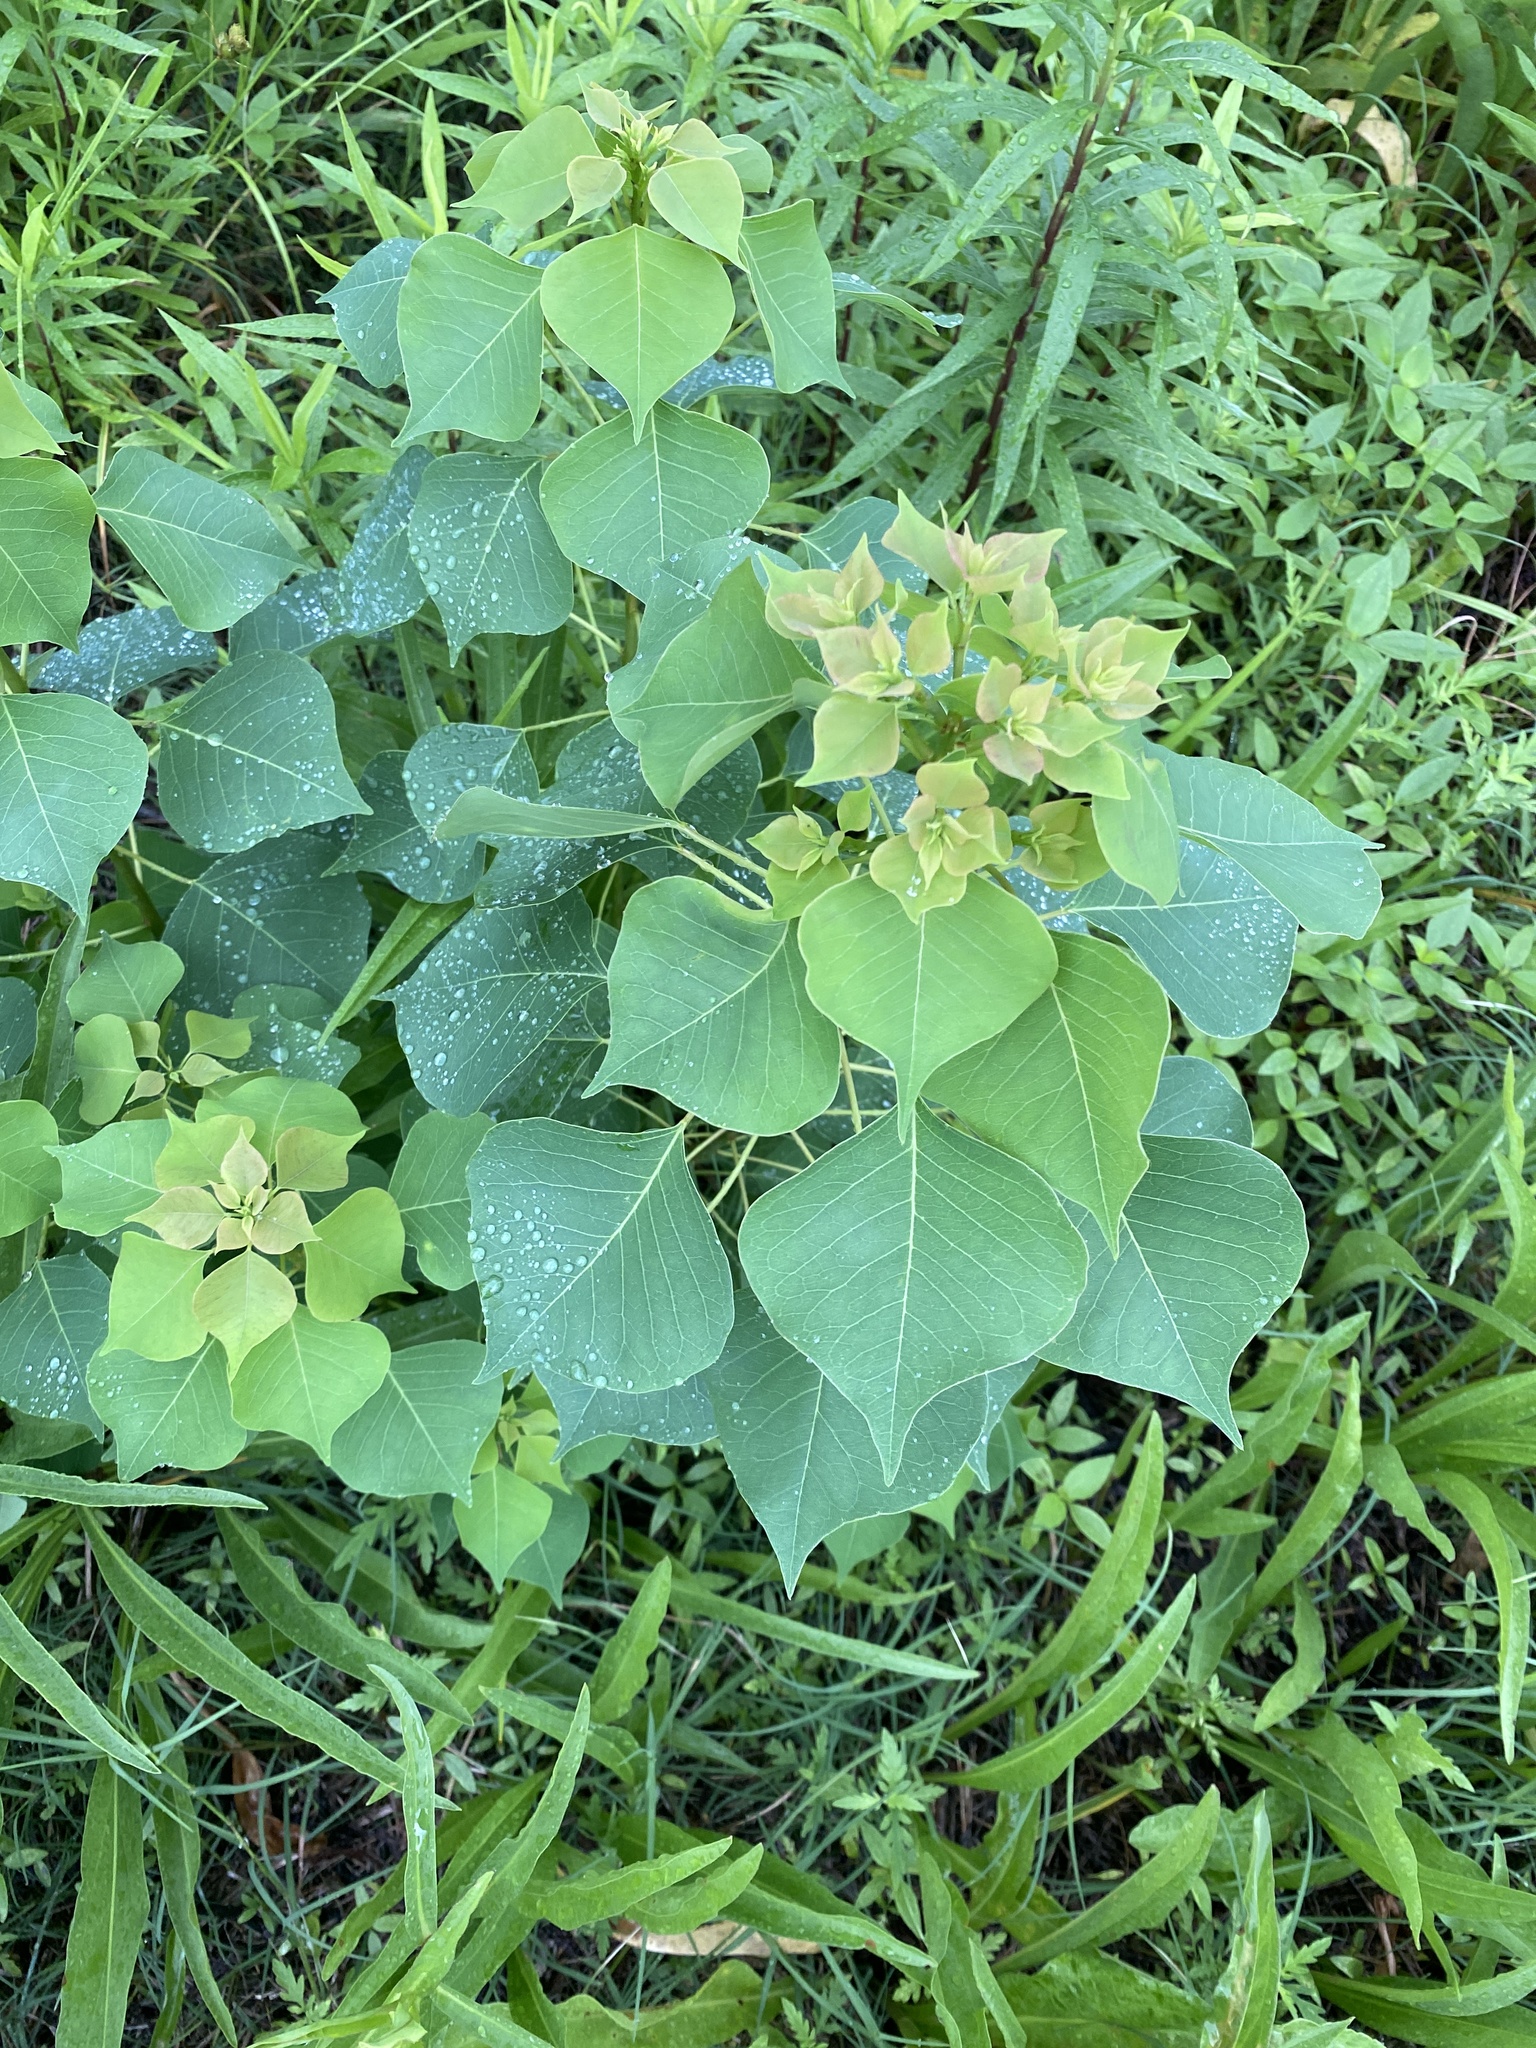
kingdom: Plantae
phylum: Tracheophyta
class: Magnoliopsida
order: Malpighiales
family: Euphorbiaceae
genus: Triadica
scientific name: Triadica sebifera
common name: Chinese tallow
